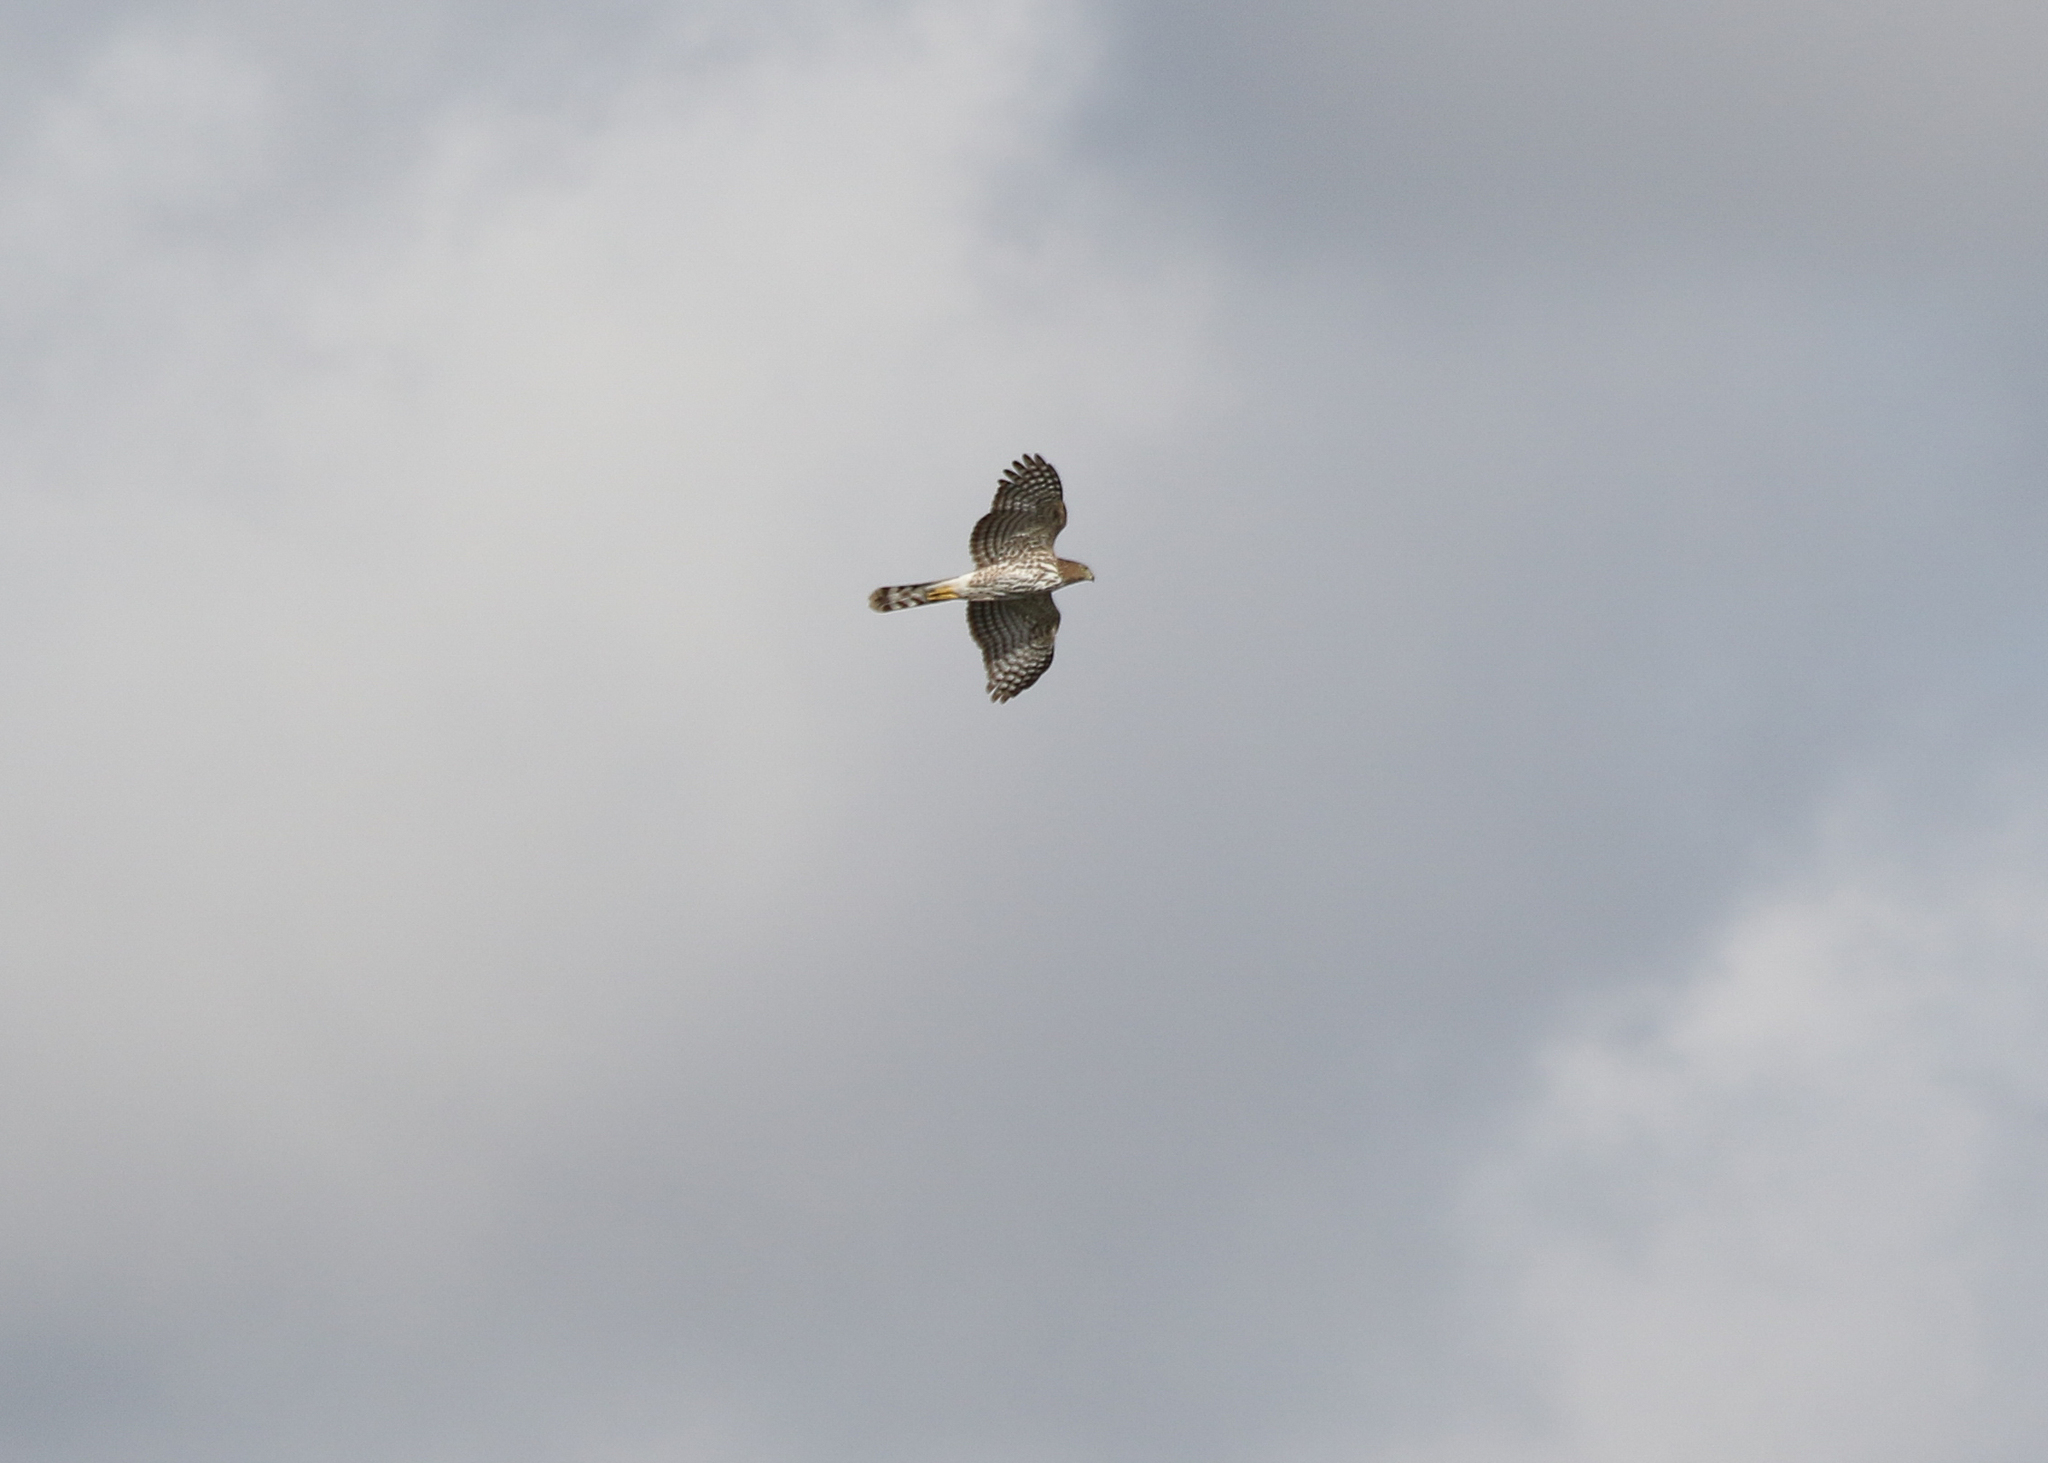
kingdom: Animalia
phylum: Chordata
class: Aves
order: Accipitriformes
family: Accipitridae
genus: Accipiter
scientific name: Accipiter cooperii
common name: Cooper's hawk
